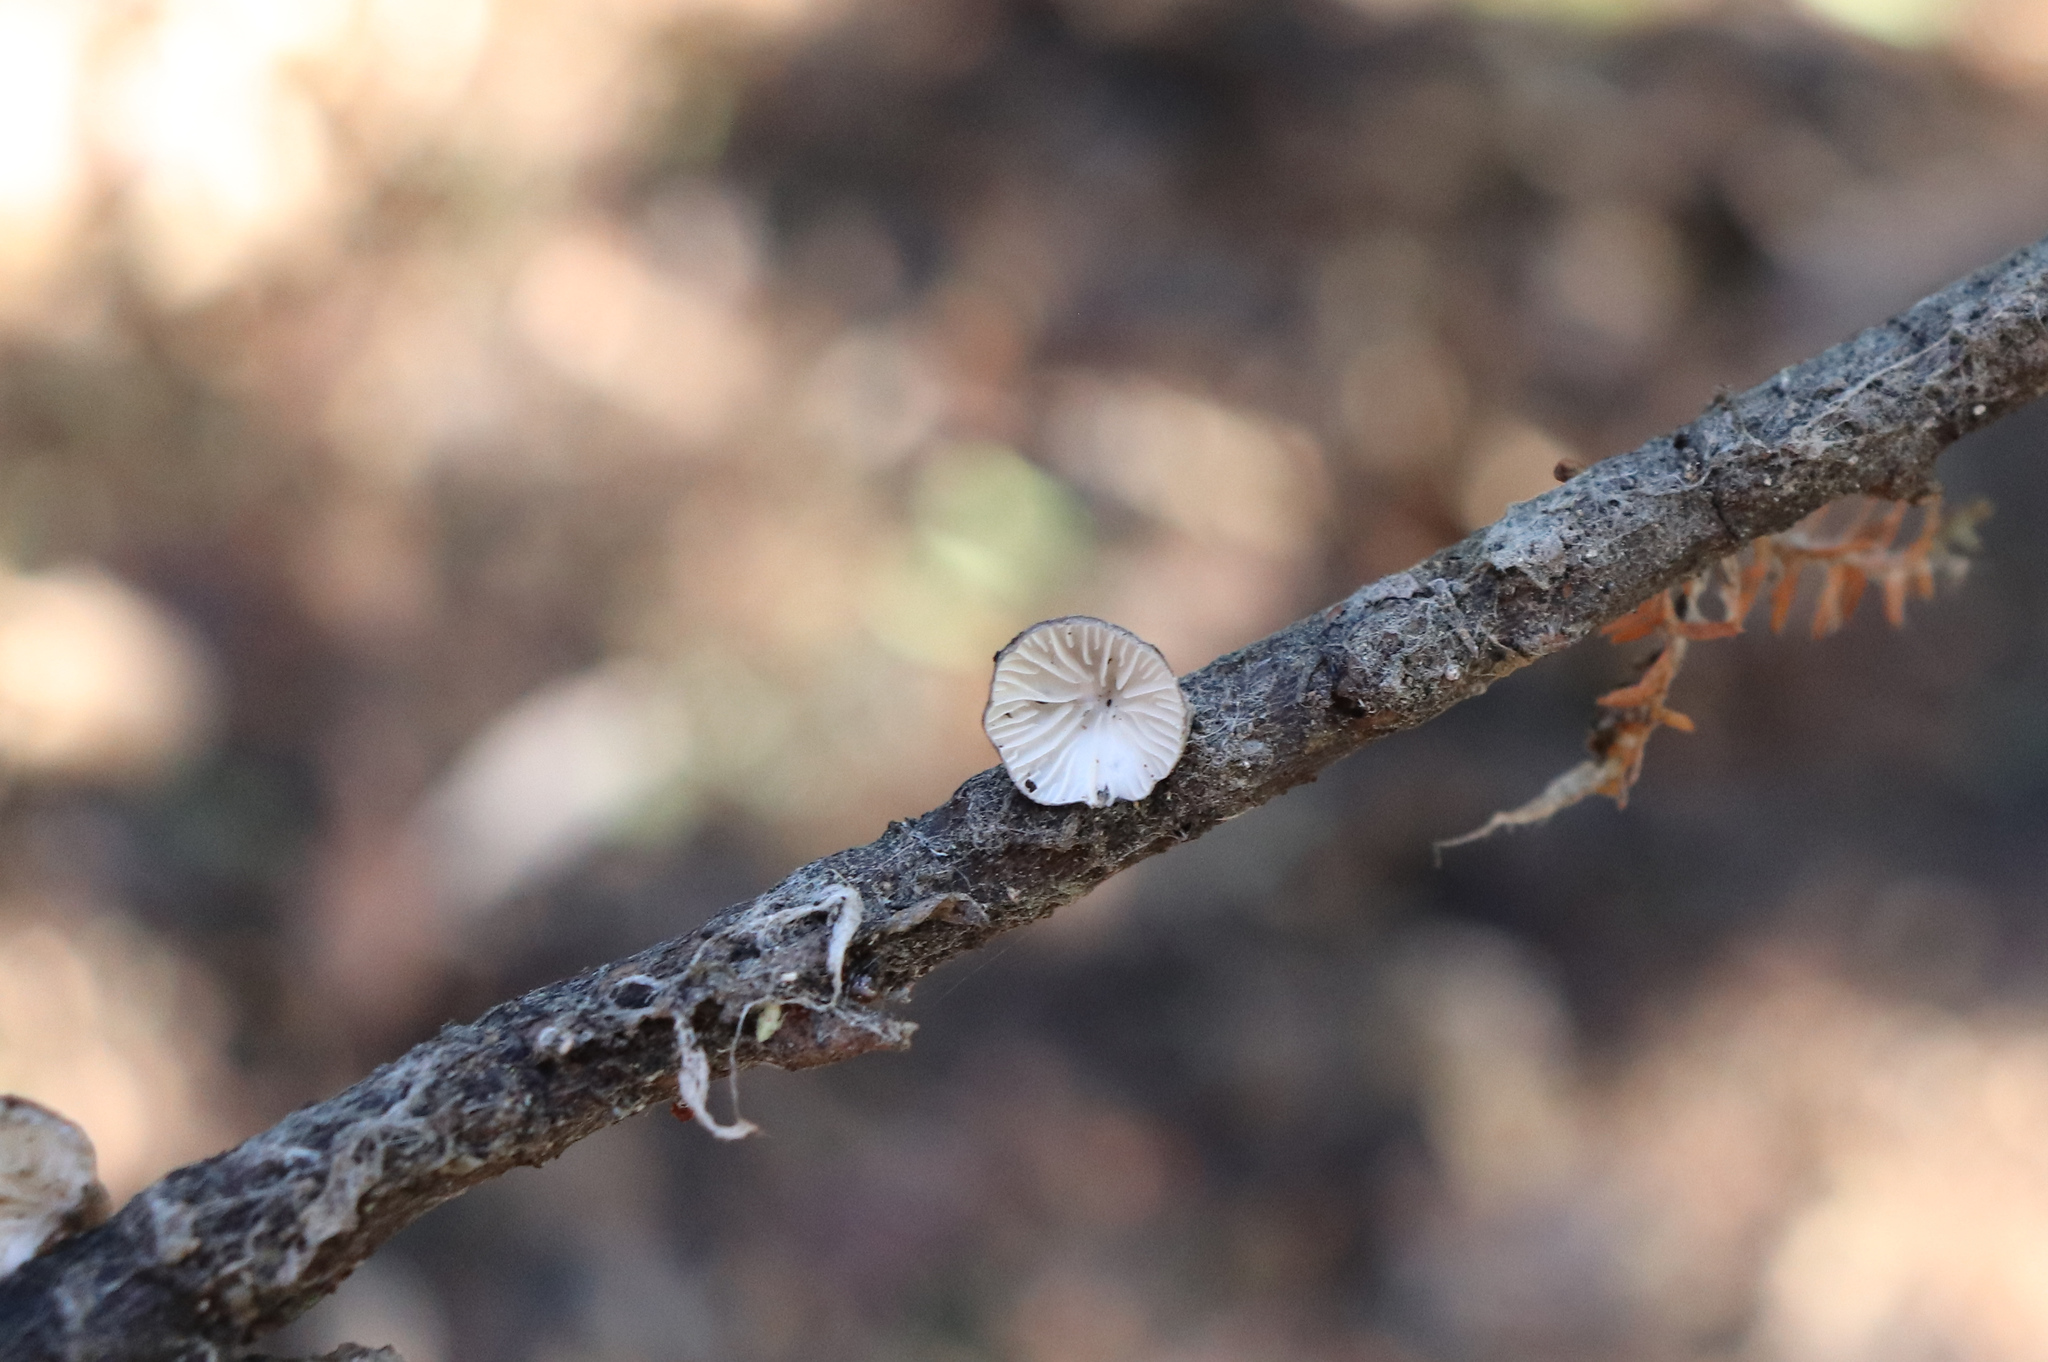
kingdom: Fungi
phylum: Basidiomycota
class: Agaricomycetes
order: Agaricales
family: Pleurotaceae
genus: Hohenbuehelia
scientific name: Hohenbuehelia
